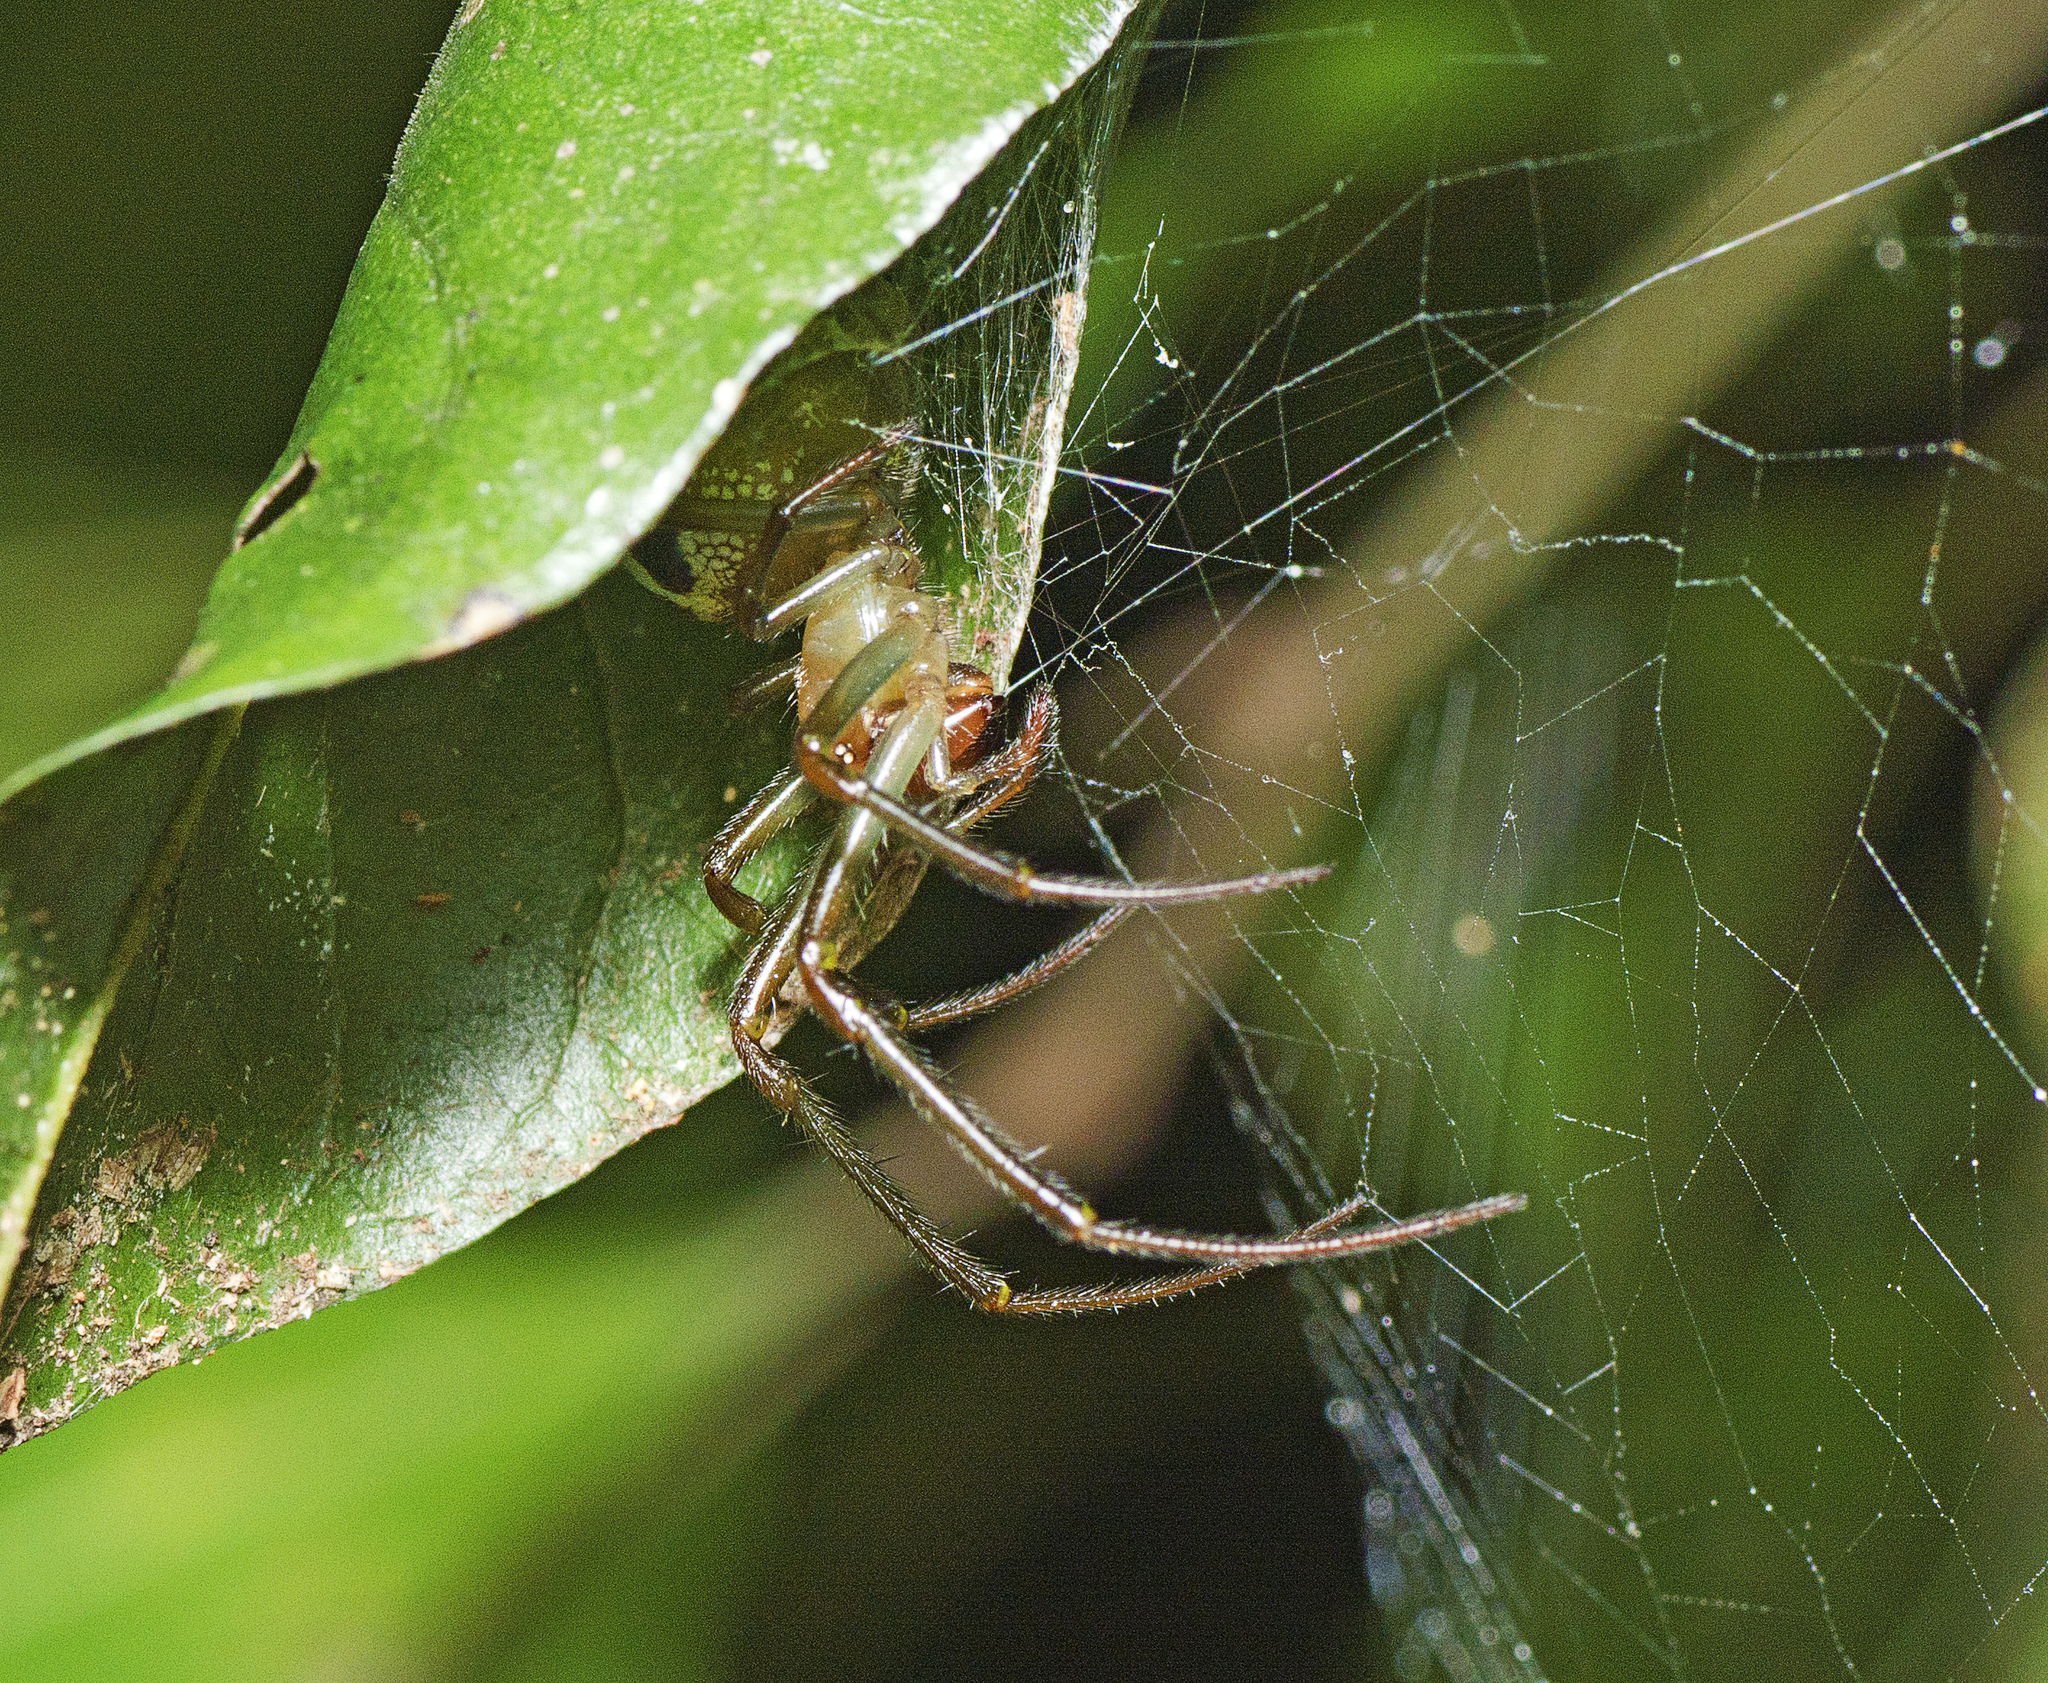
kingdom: Animalia
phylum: Arthropoda
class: Arachnida
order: Araneae
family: Araneidae
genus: Phonognatha
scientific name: Phonognatha graeffei
